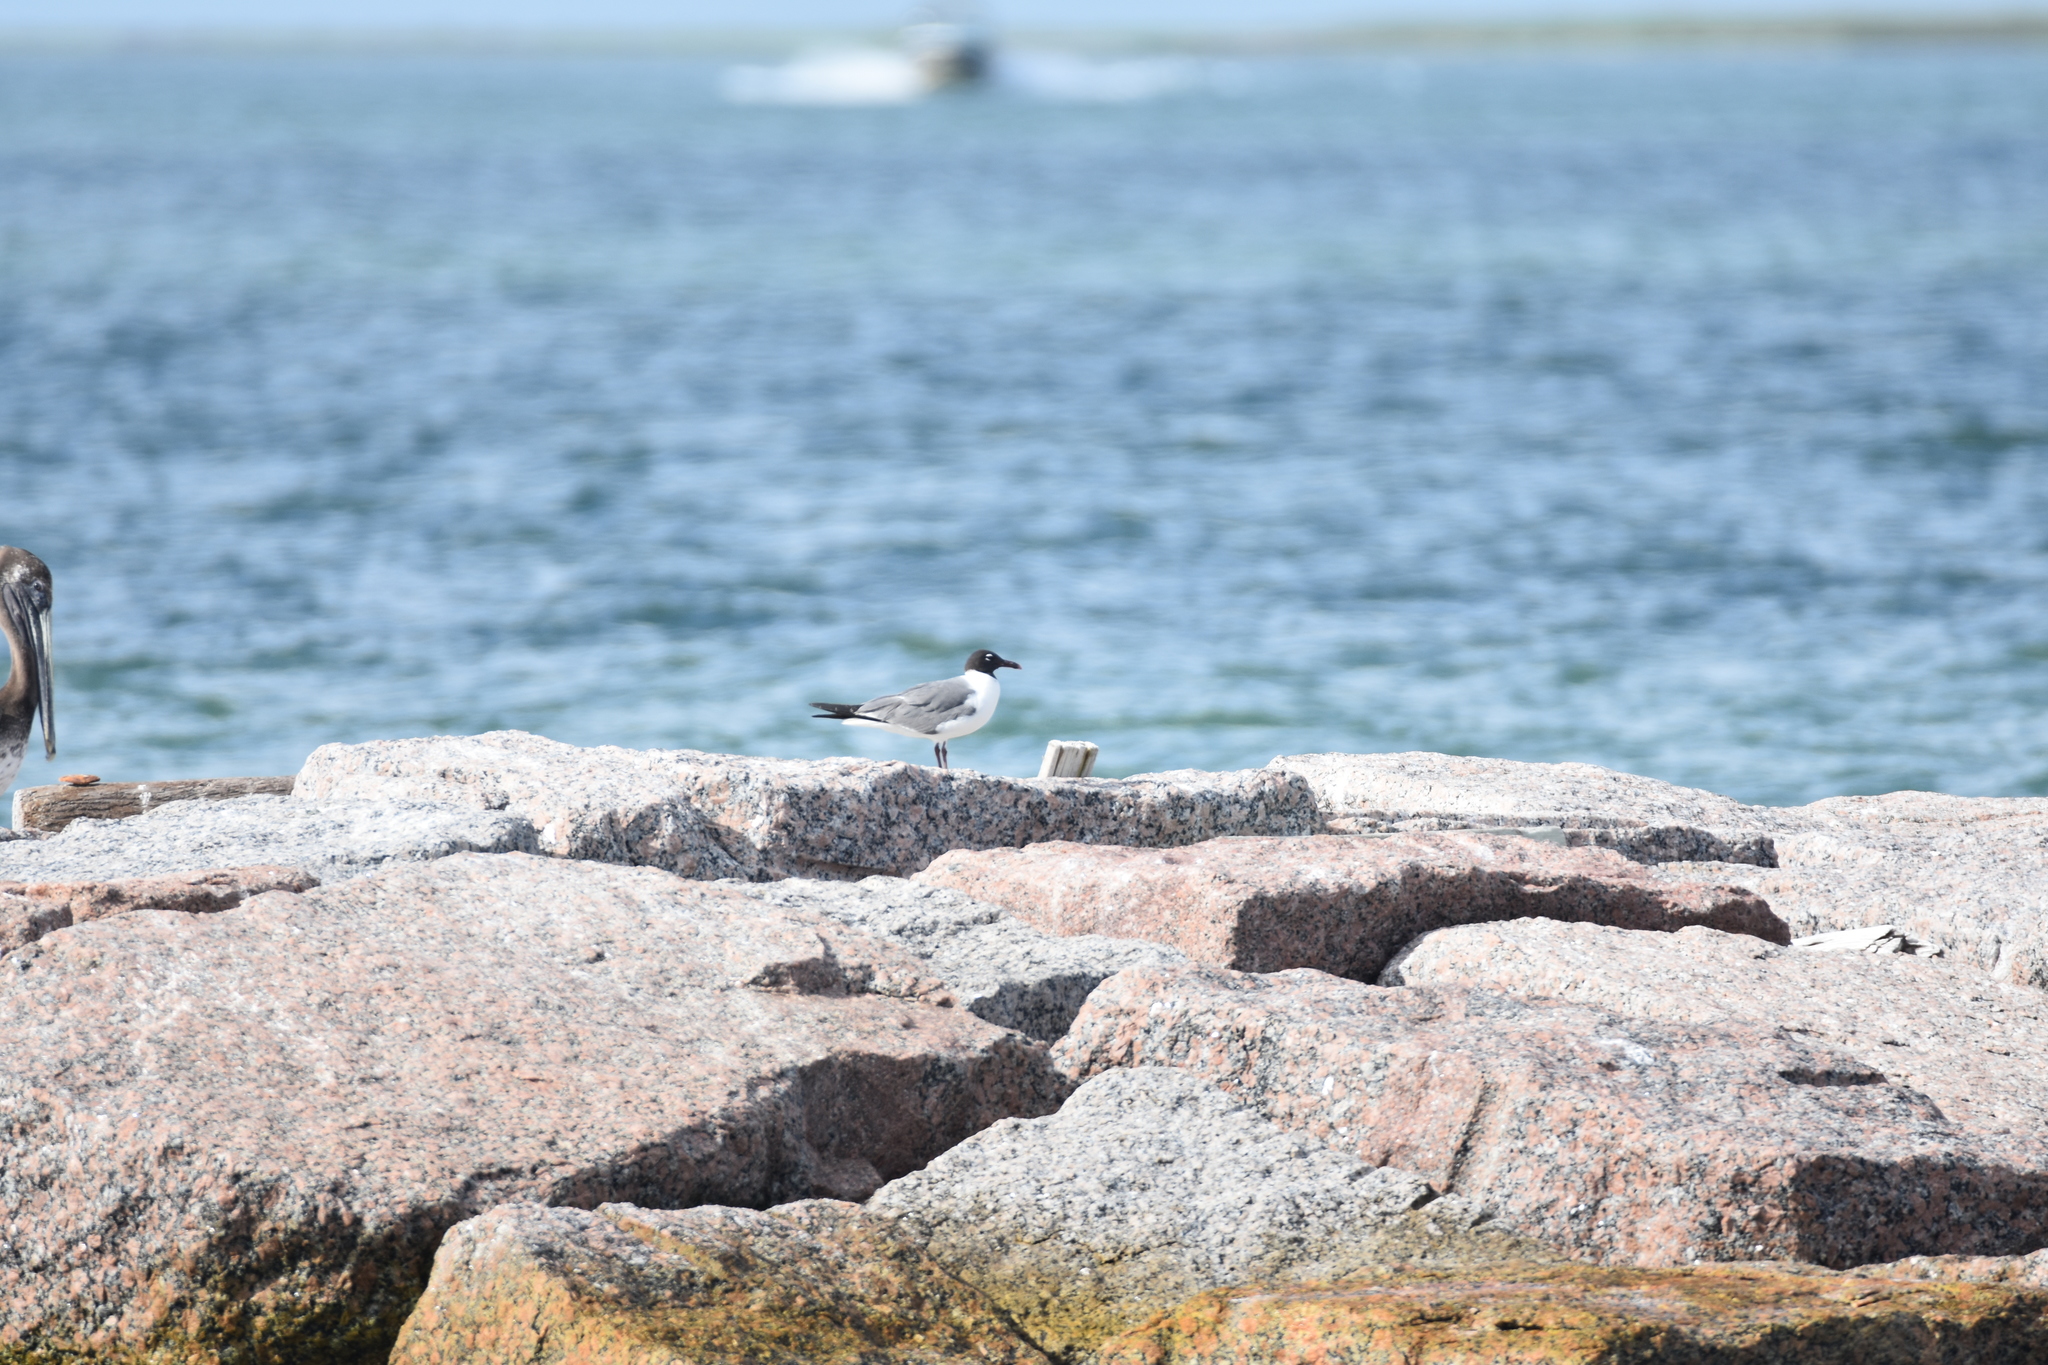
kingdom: Animalia
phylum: Chordata
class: Aves
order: Charadriiformes
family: Laridae
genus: Leucophaeus
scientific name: Leucophaeus atricilla
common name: Laughing gull
